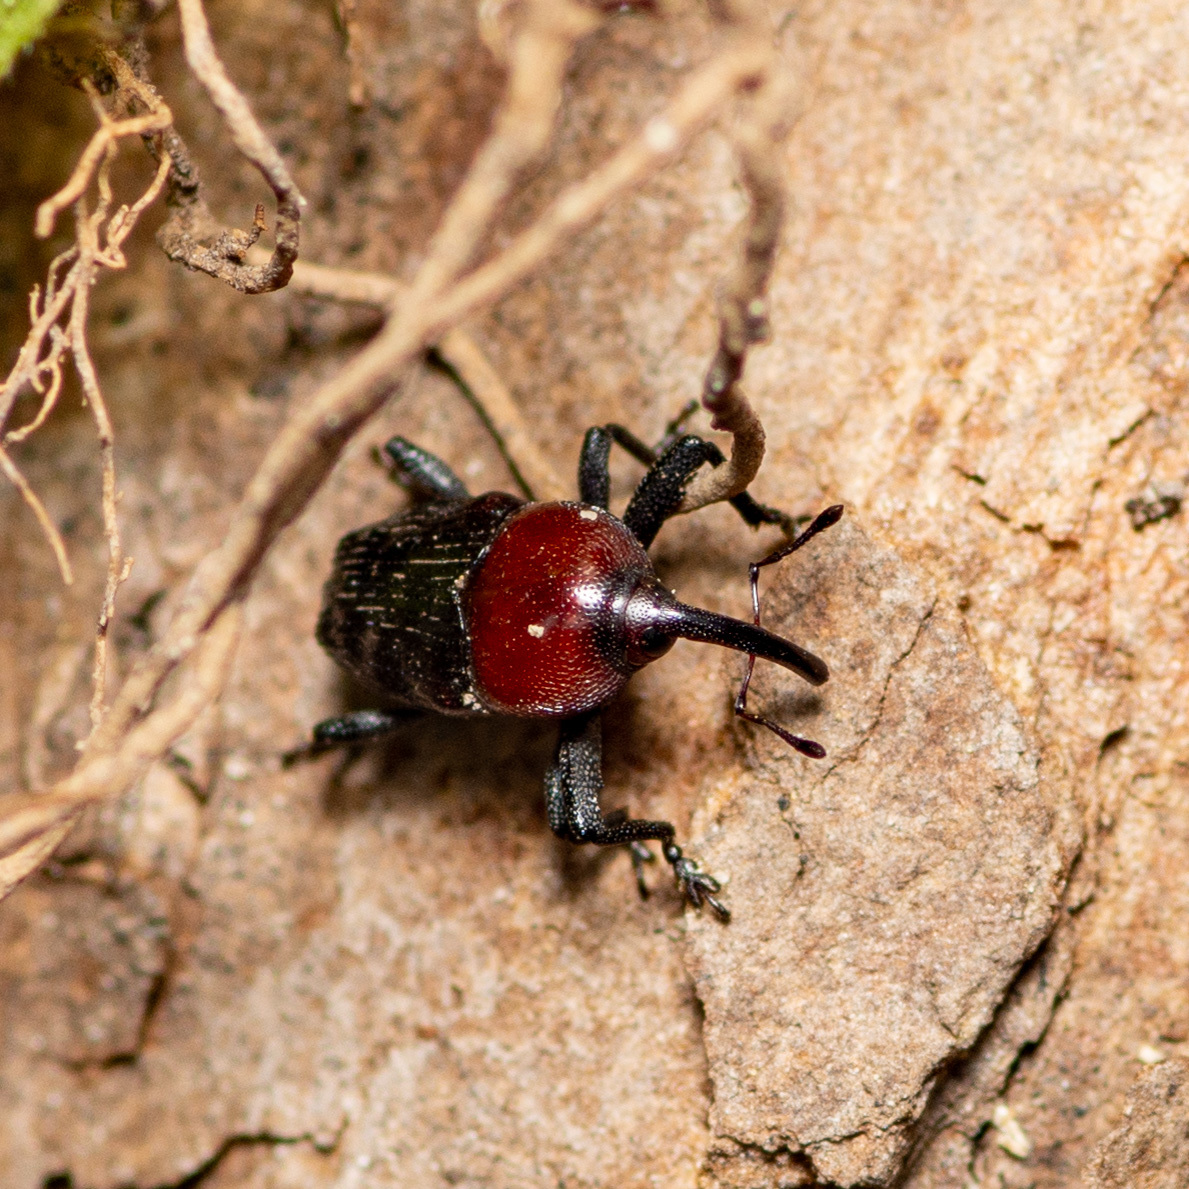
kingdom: Animalia
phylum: Arthropoda
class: Insecta
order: Coleoptera
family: Curculionidae
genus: Madarellus
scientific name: Madarellus undulatus
